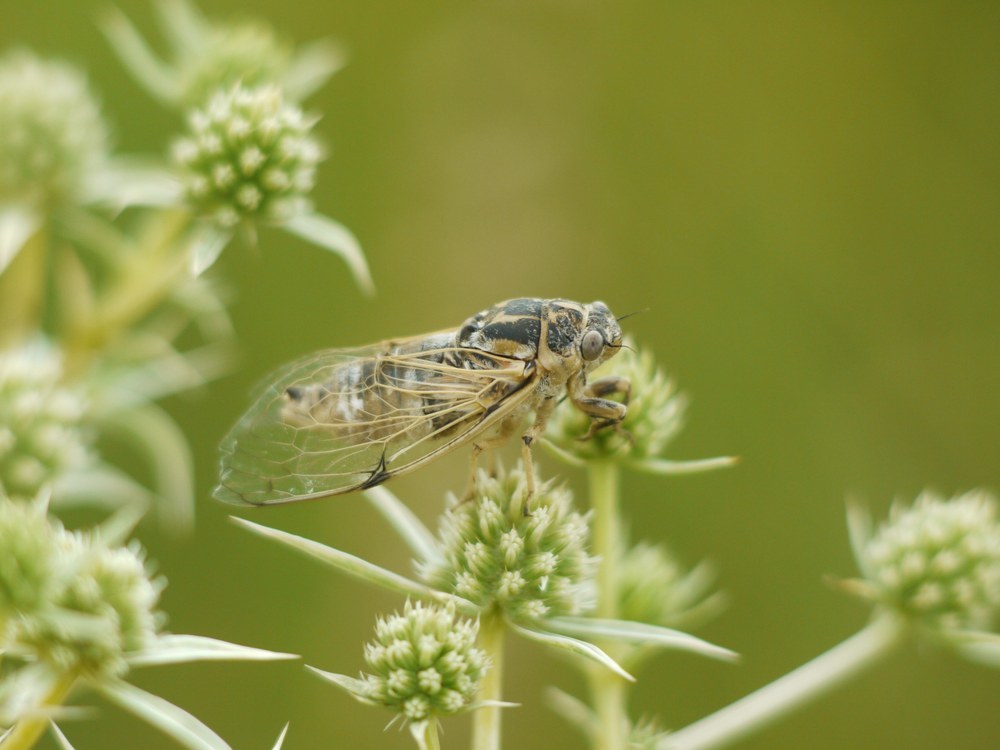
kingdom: Animalia
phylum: Arthropoda
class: Insecta
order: Hemiptera
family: Cicadidae
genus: Cicadatra
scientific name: Cicadatra platyptera
